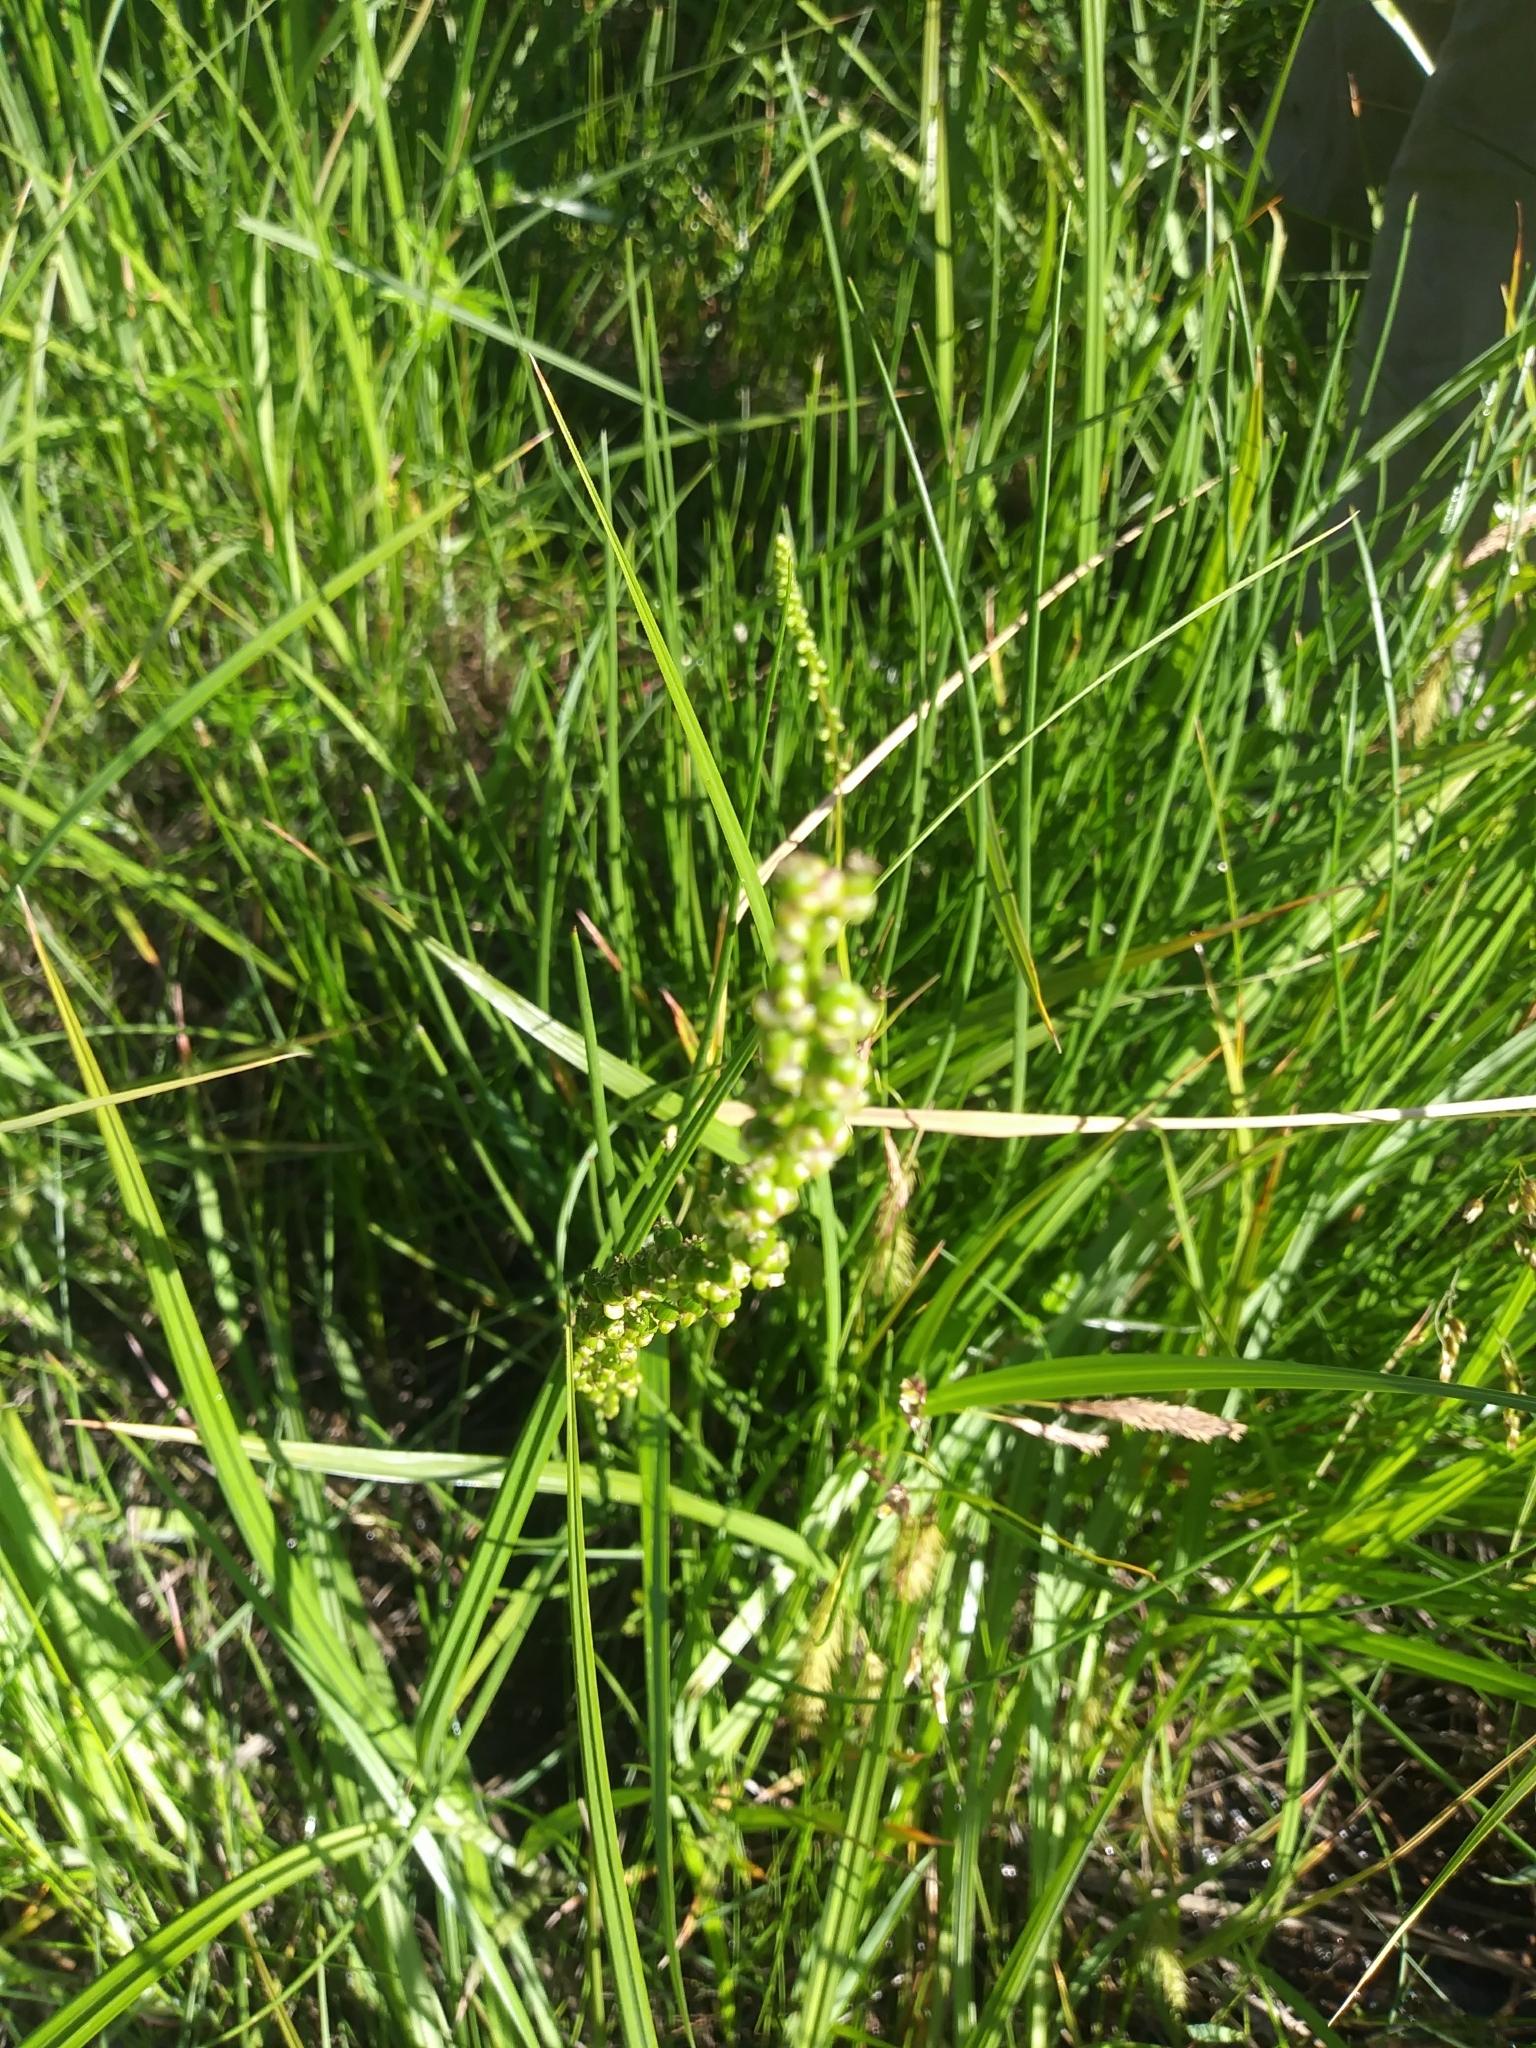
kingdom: Plantae
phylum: Tracheophyta
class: Liliopsida
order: Alismatales
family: Juncaginaceae
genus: Triglochin
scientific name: Triglochin maritima
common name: Sea arrowgrass
